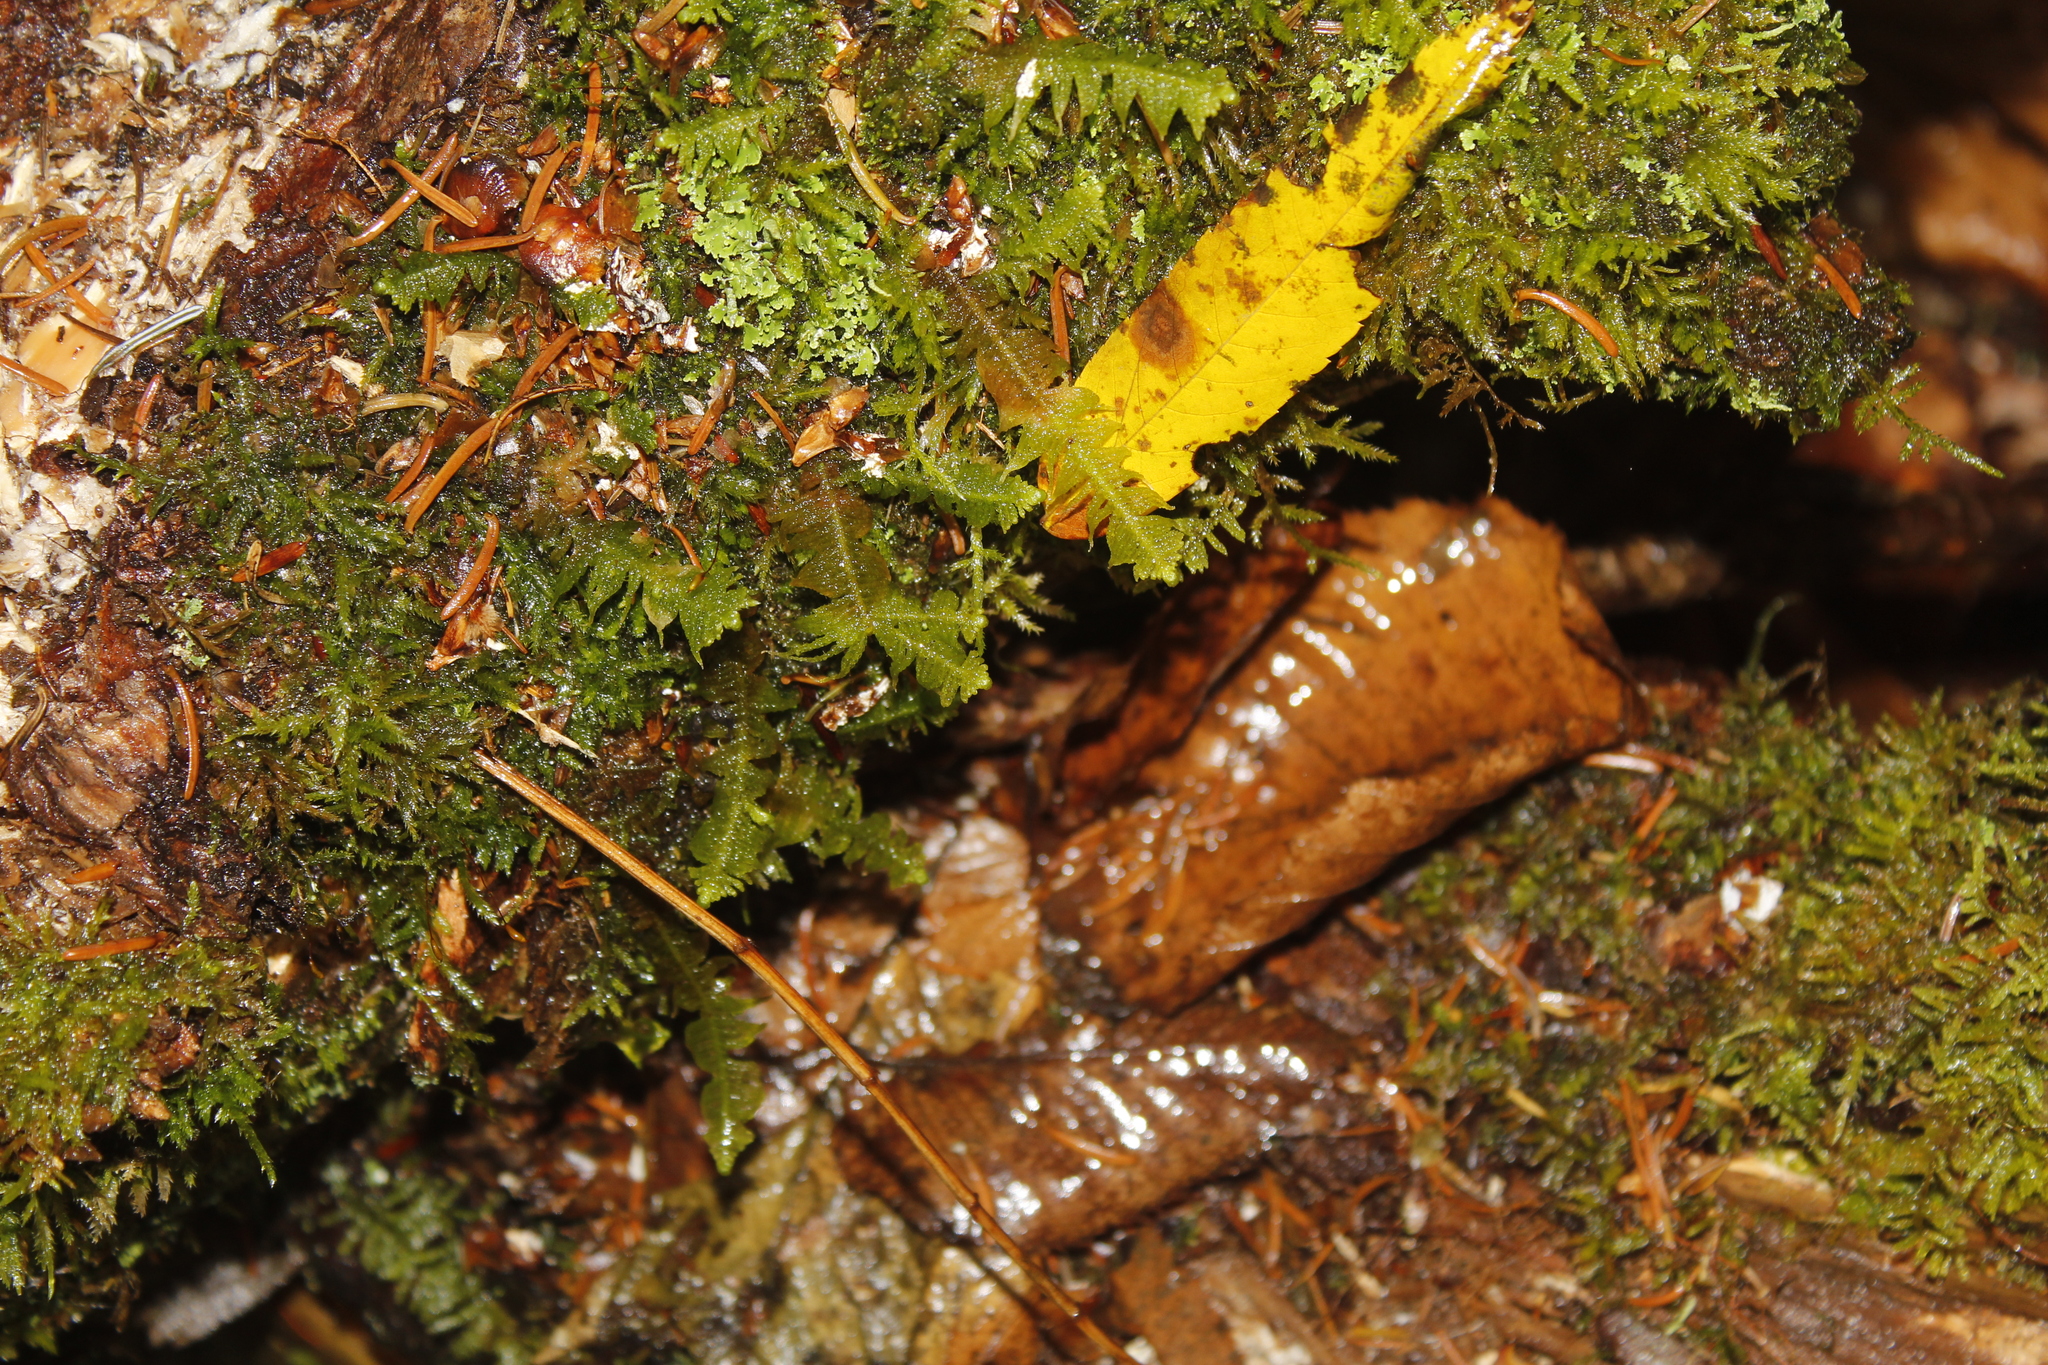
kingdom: Plantae
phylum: Bryophyta
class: Bryopsida
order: Hypnales
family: Pylaisiaceae
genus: Ptilium
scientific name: Ptilium crista-castrensis
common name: Knight's plume moss
